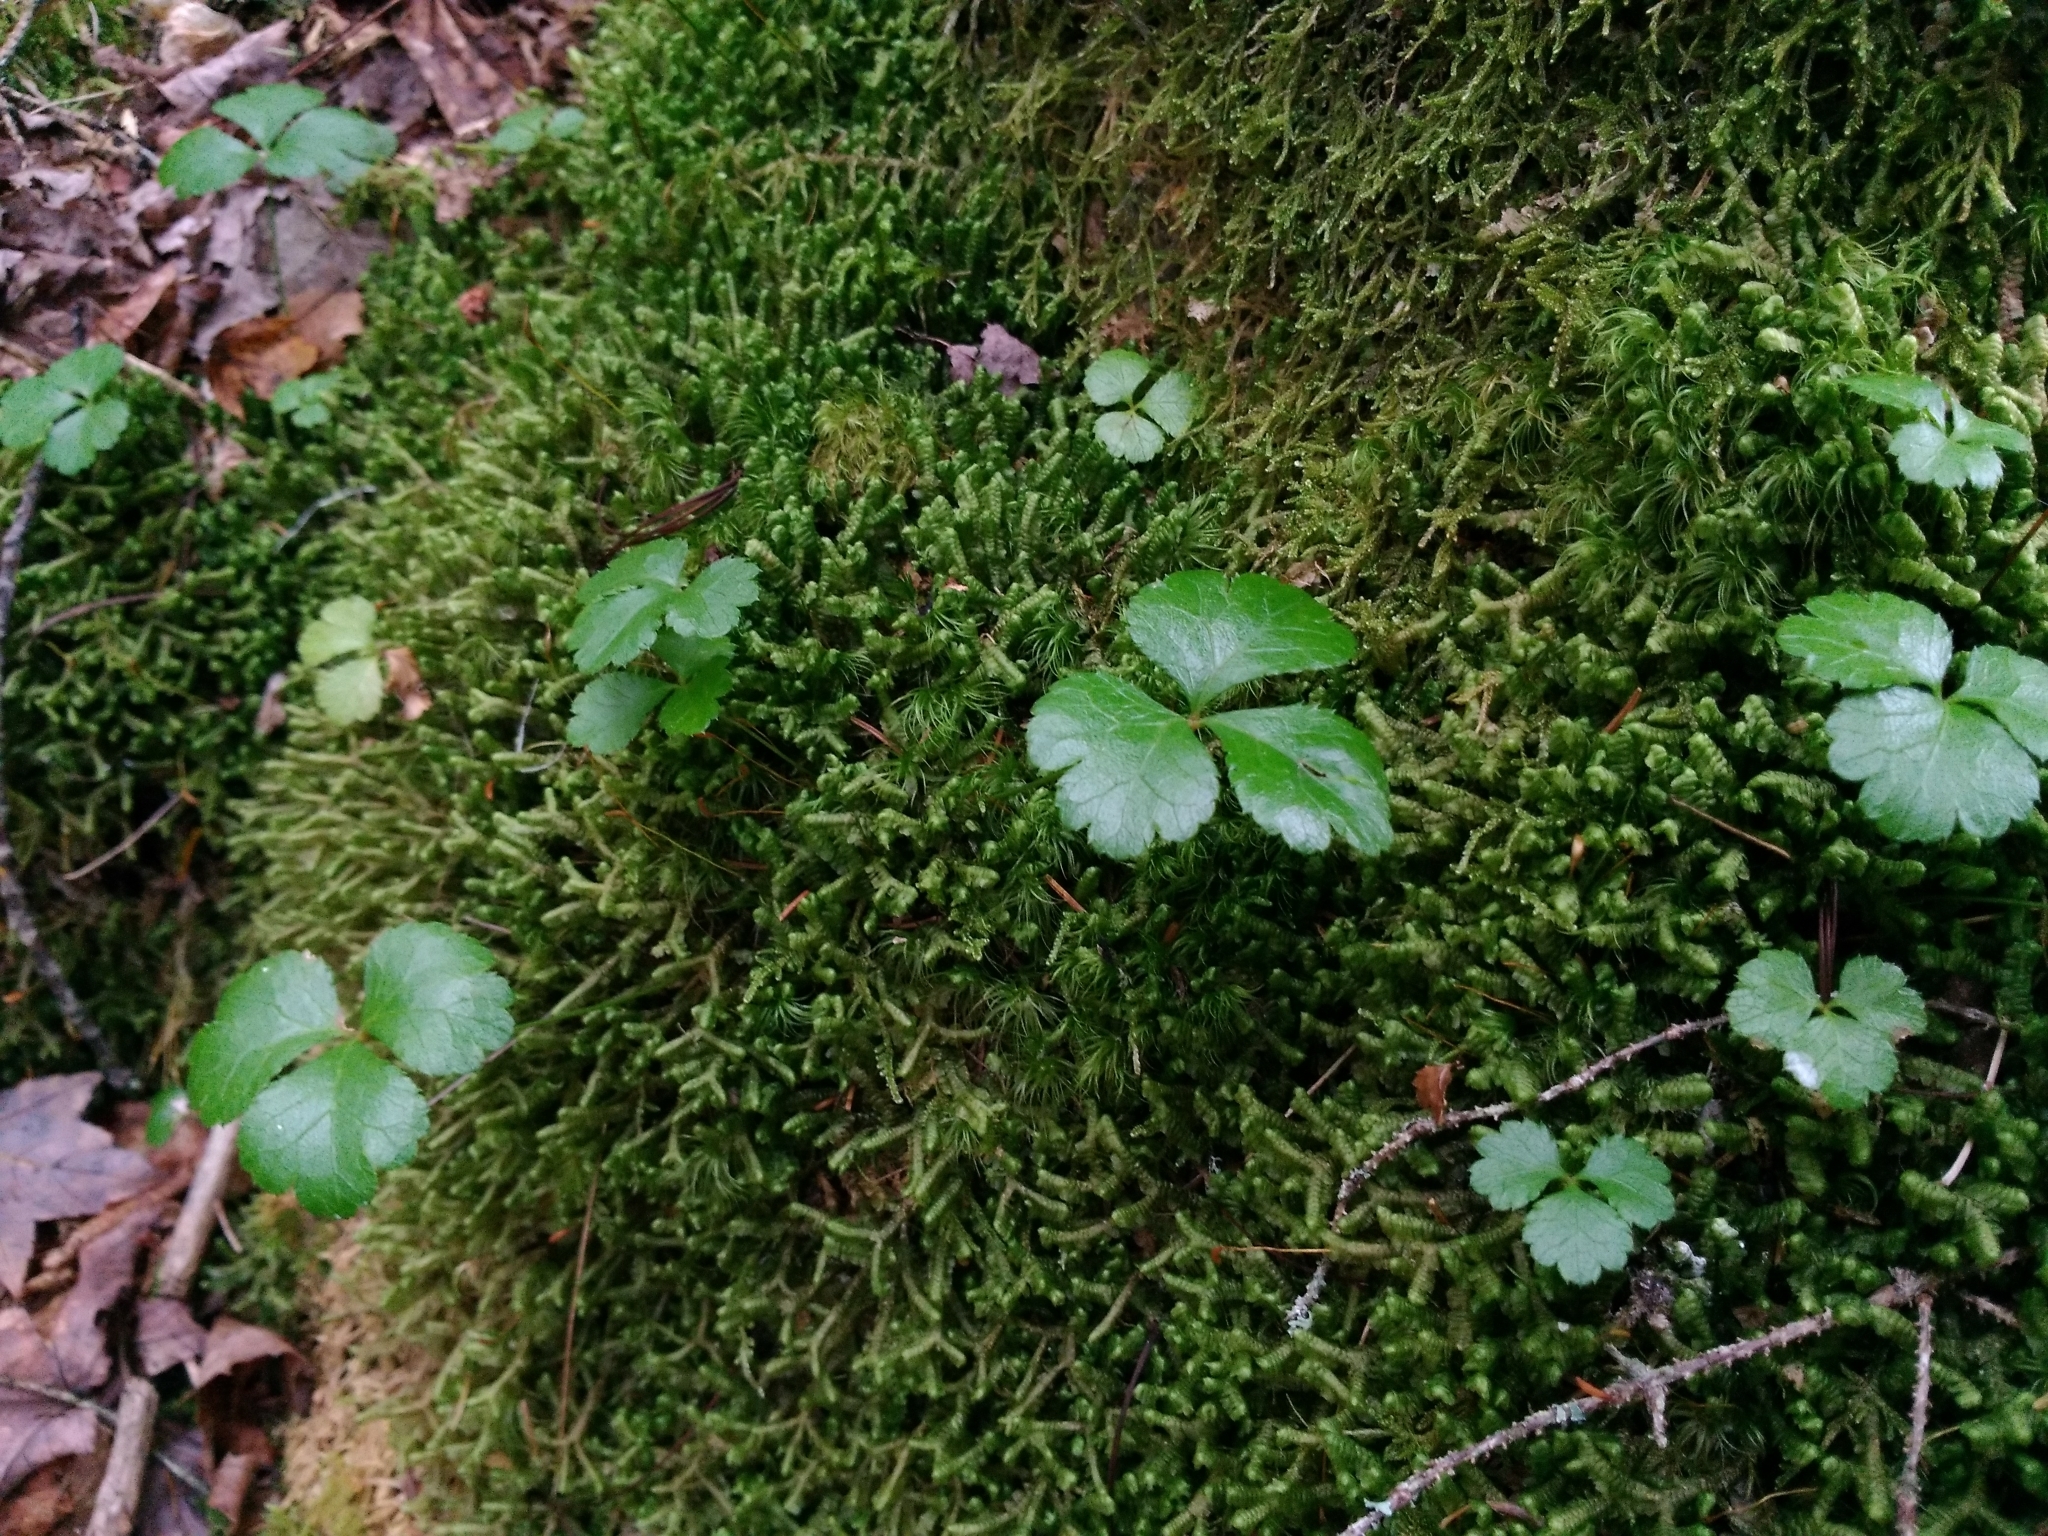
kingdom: Plantae
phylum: Tracheophyta
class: Magnoliopsida
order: Ranunculales
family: Ranunculaceae
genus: Coptis
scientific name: Coptis trifolia
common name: Canker-root
